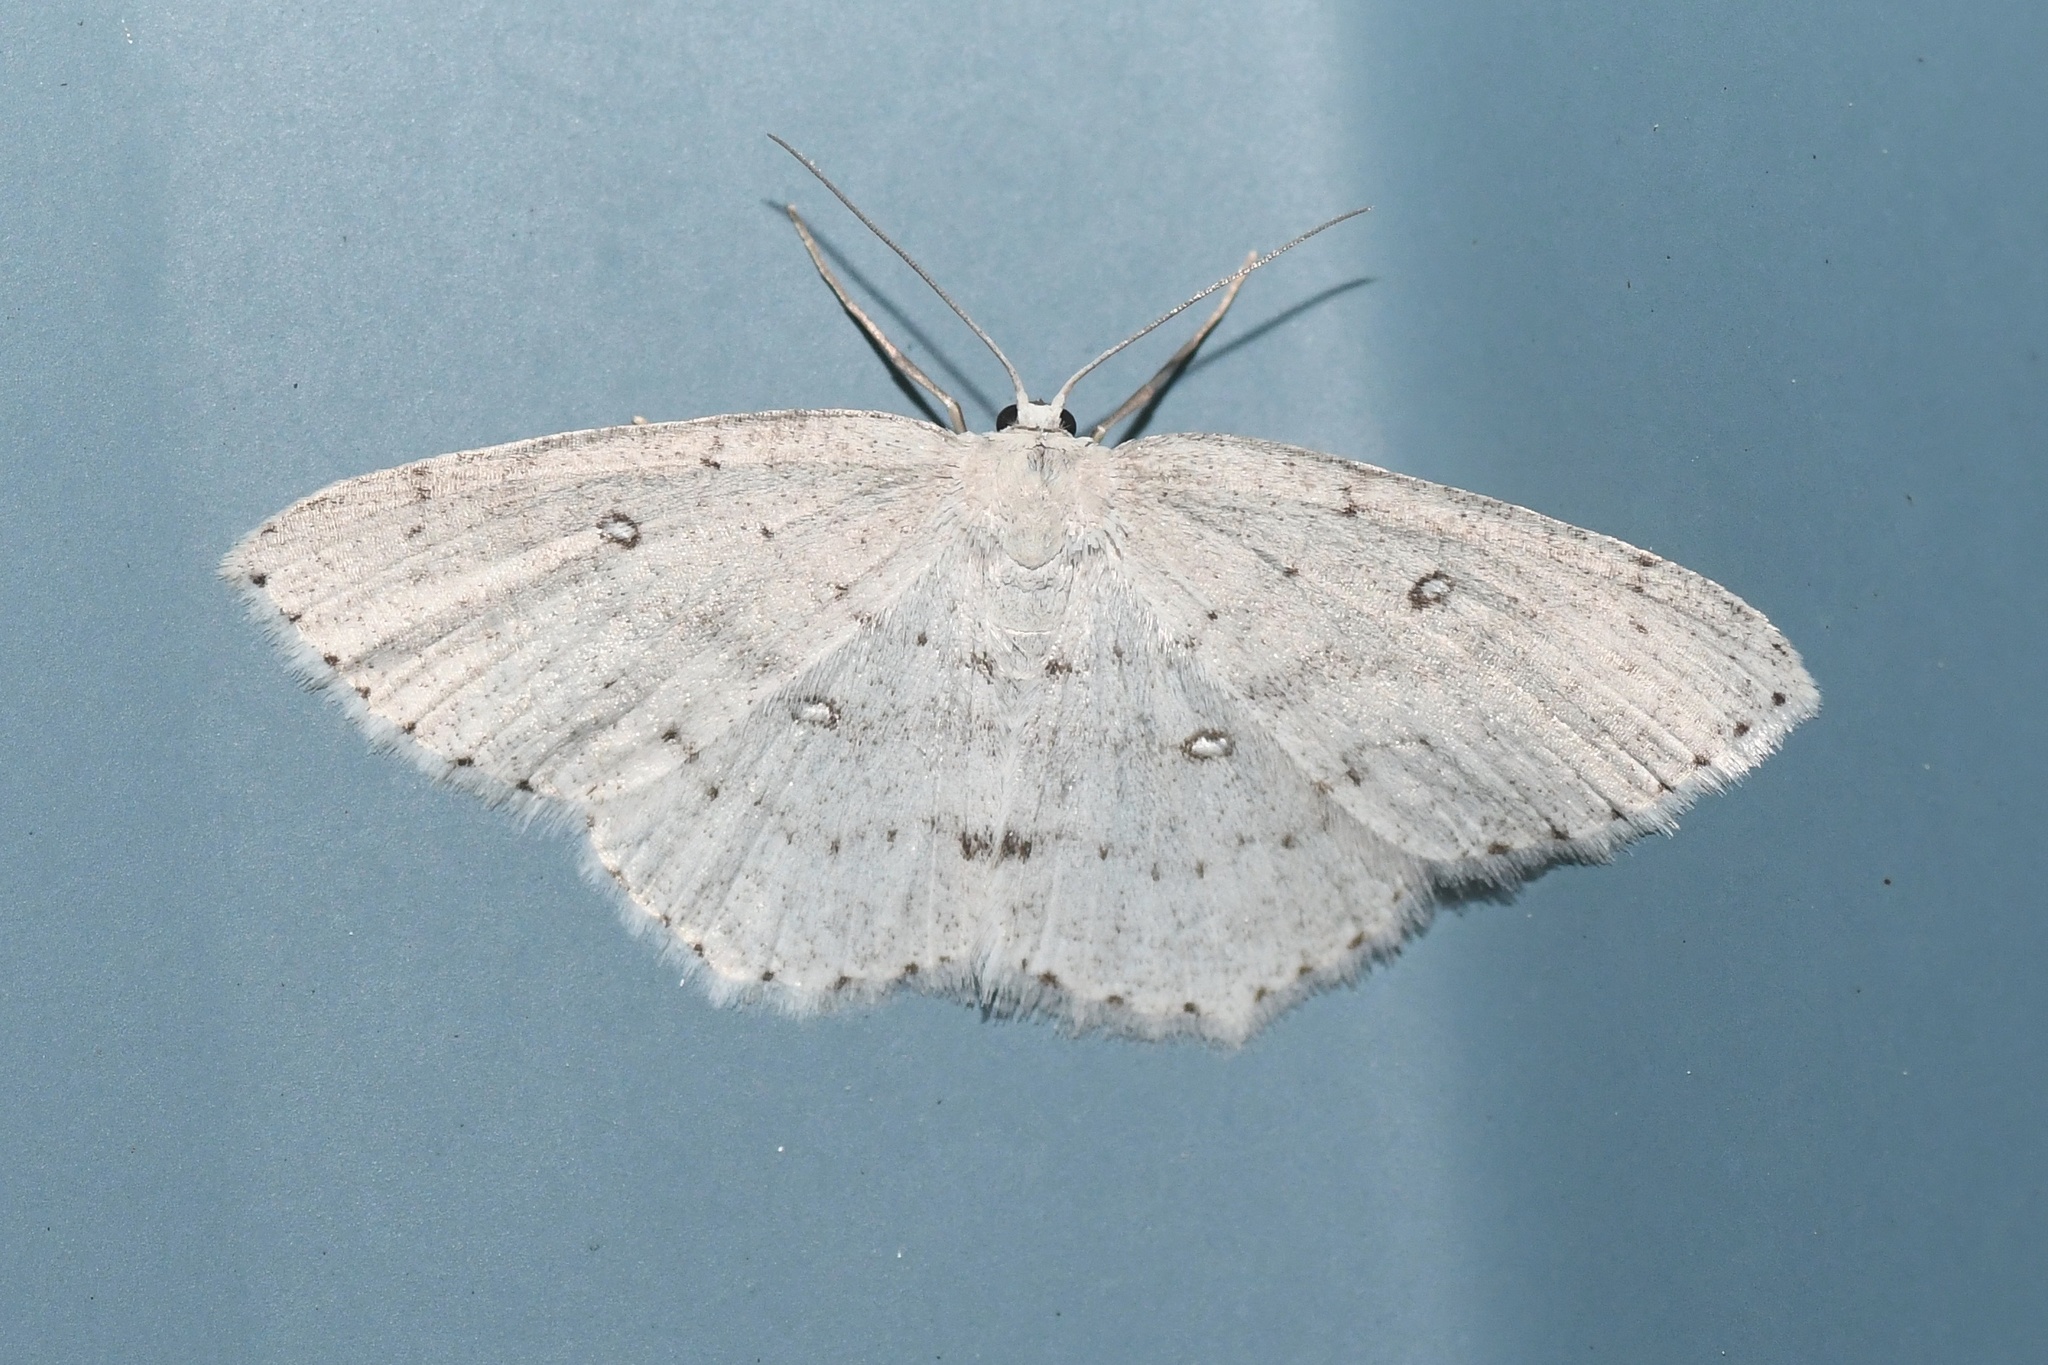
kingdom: Animalia
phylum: Arthropoda
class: Insecta
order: Lepidoptera
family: Geometridae
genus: Cyclophora
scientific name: Cyclophora pendulinaria
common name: Sweet fern geometer
